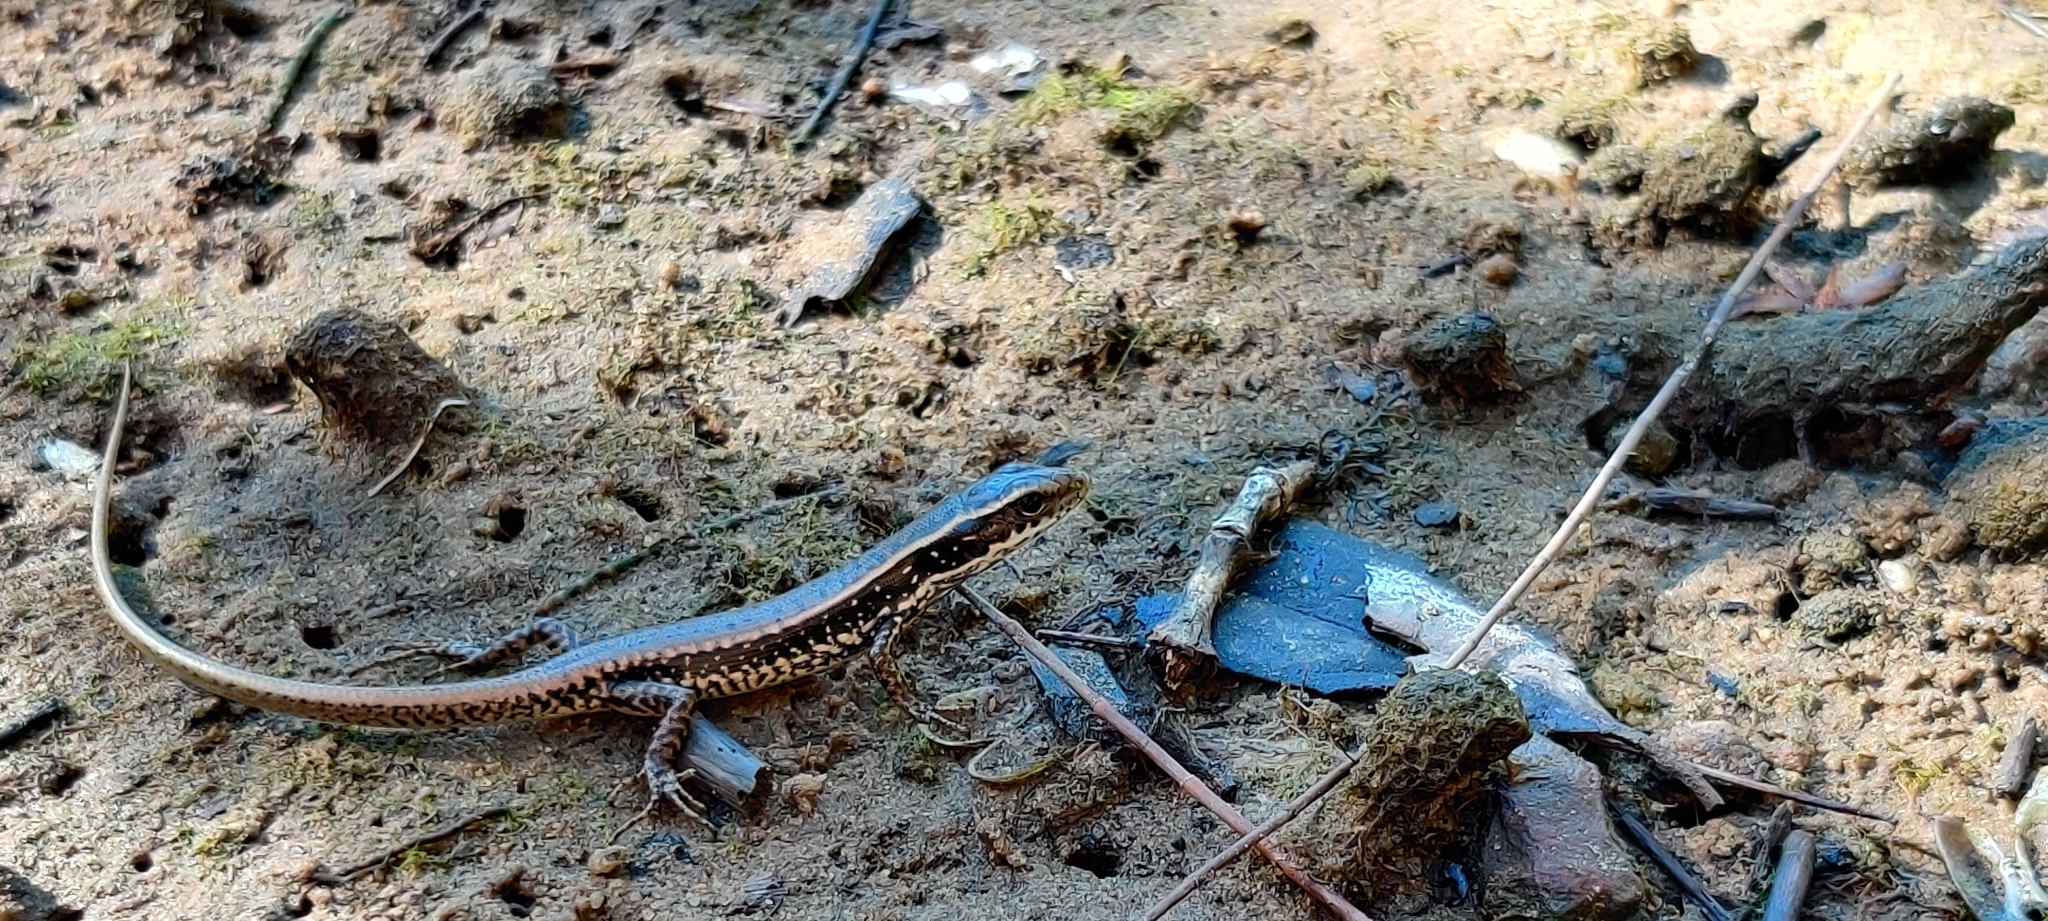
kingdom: Animalia
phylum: Chordata
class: Squamata
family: Scincidae
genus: Eulamprus
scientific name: Eulamprus quoyii
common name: Eastern water skink
